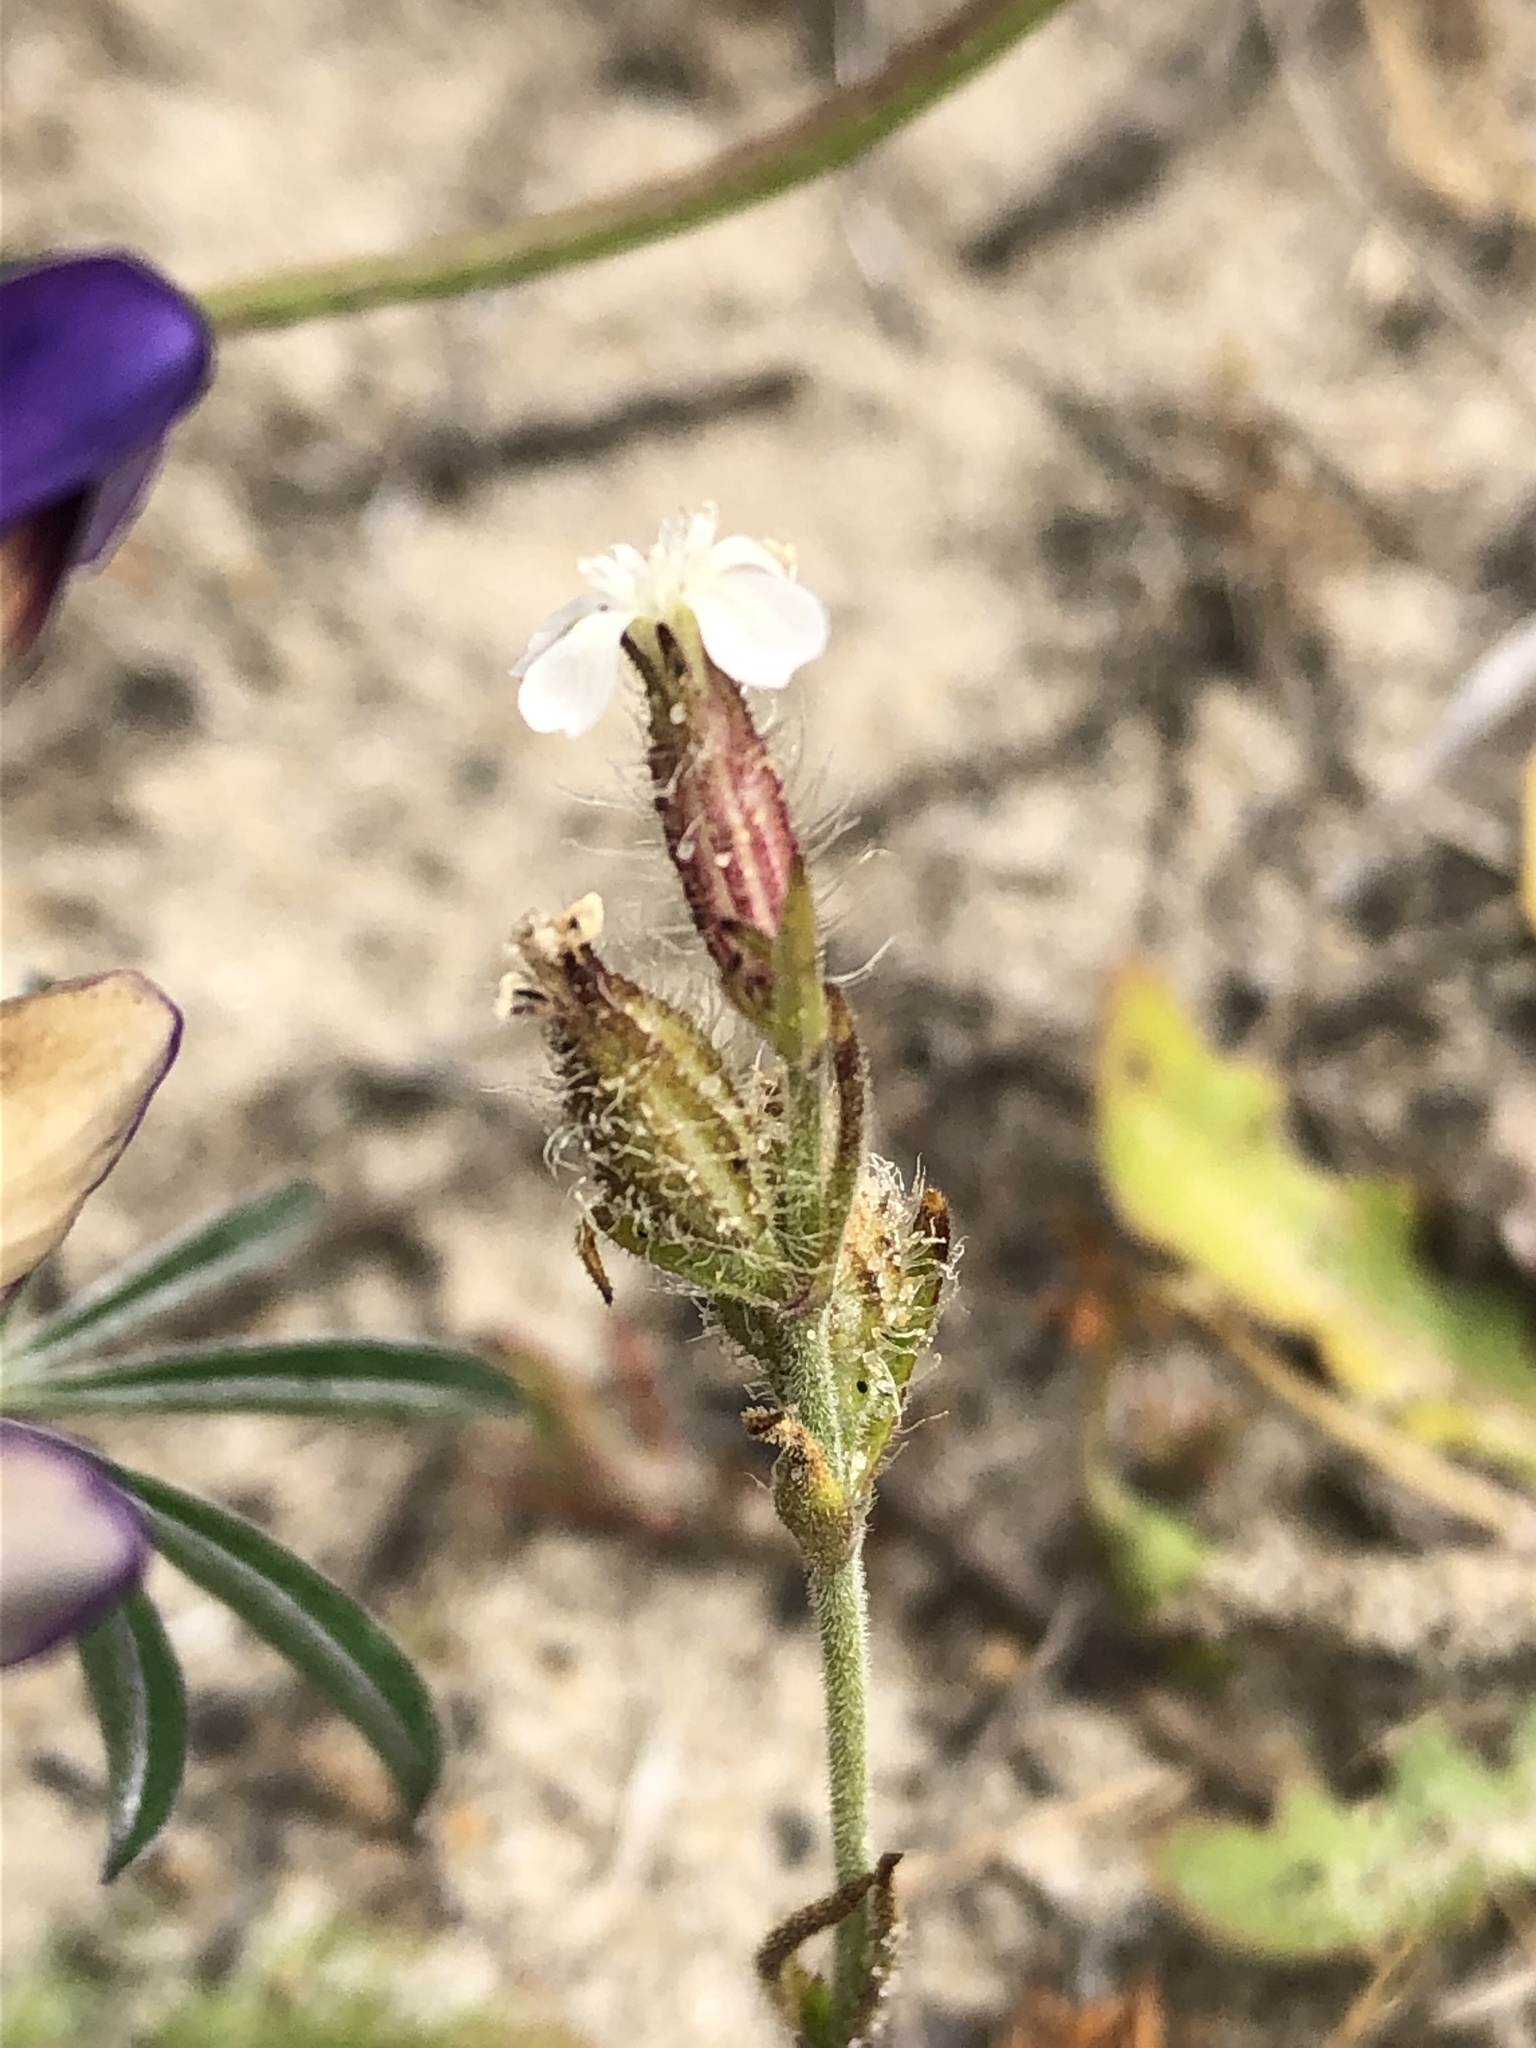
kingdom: Plantae
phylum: Tracheophyta
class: Magnoliopsida
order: Caryophyllales
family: Caryophyllaceae
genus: Silene
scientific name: Silene gallica
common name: Small-flowered catchfly
